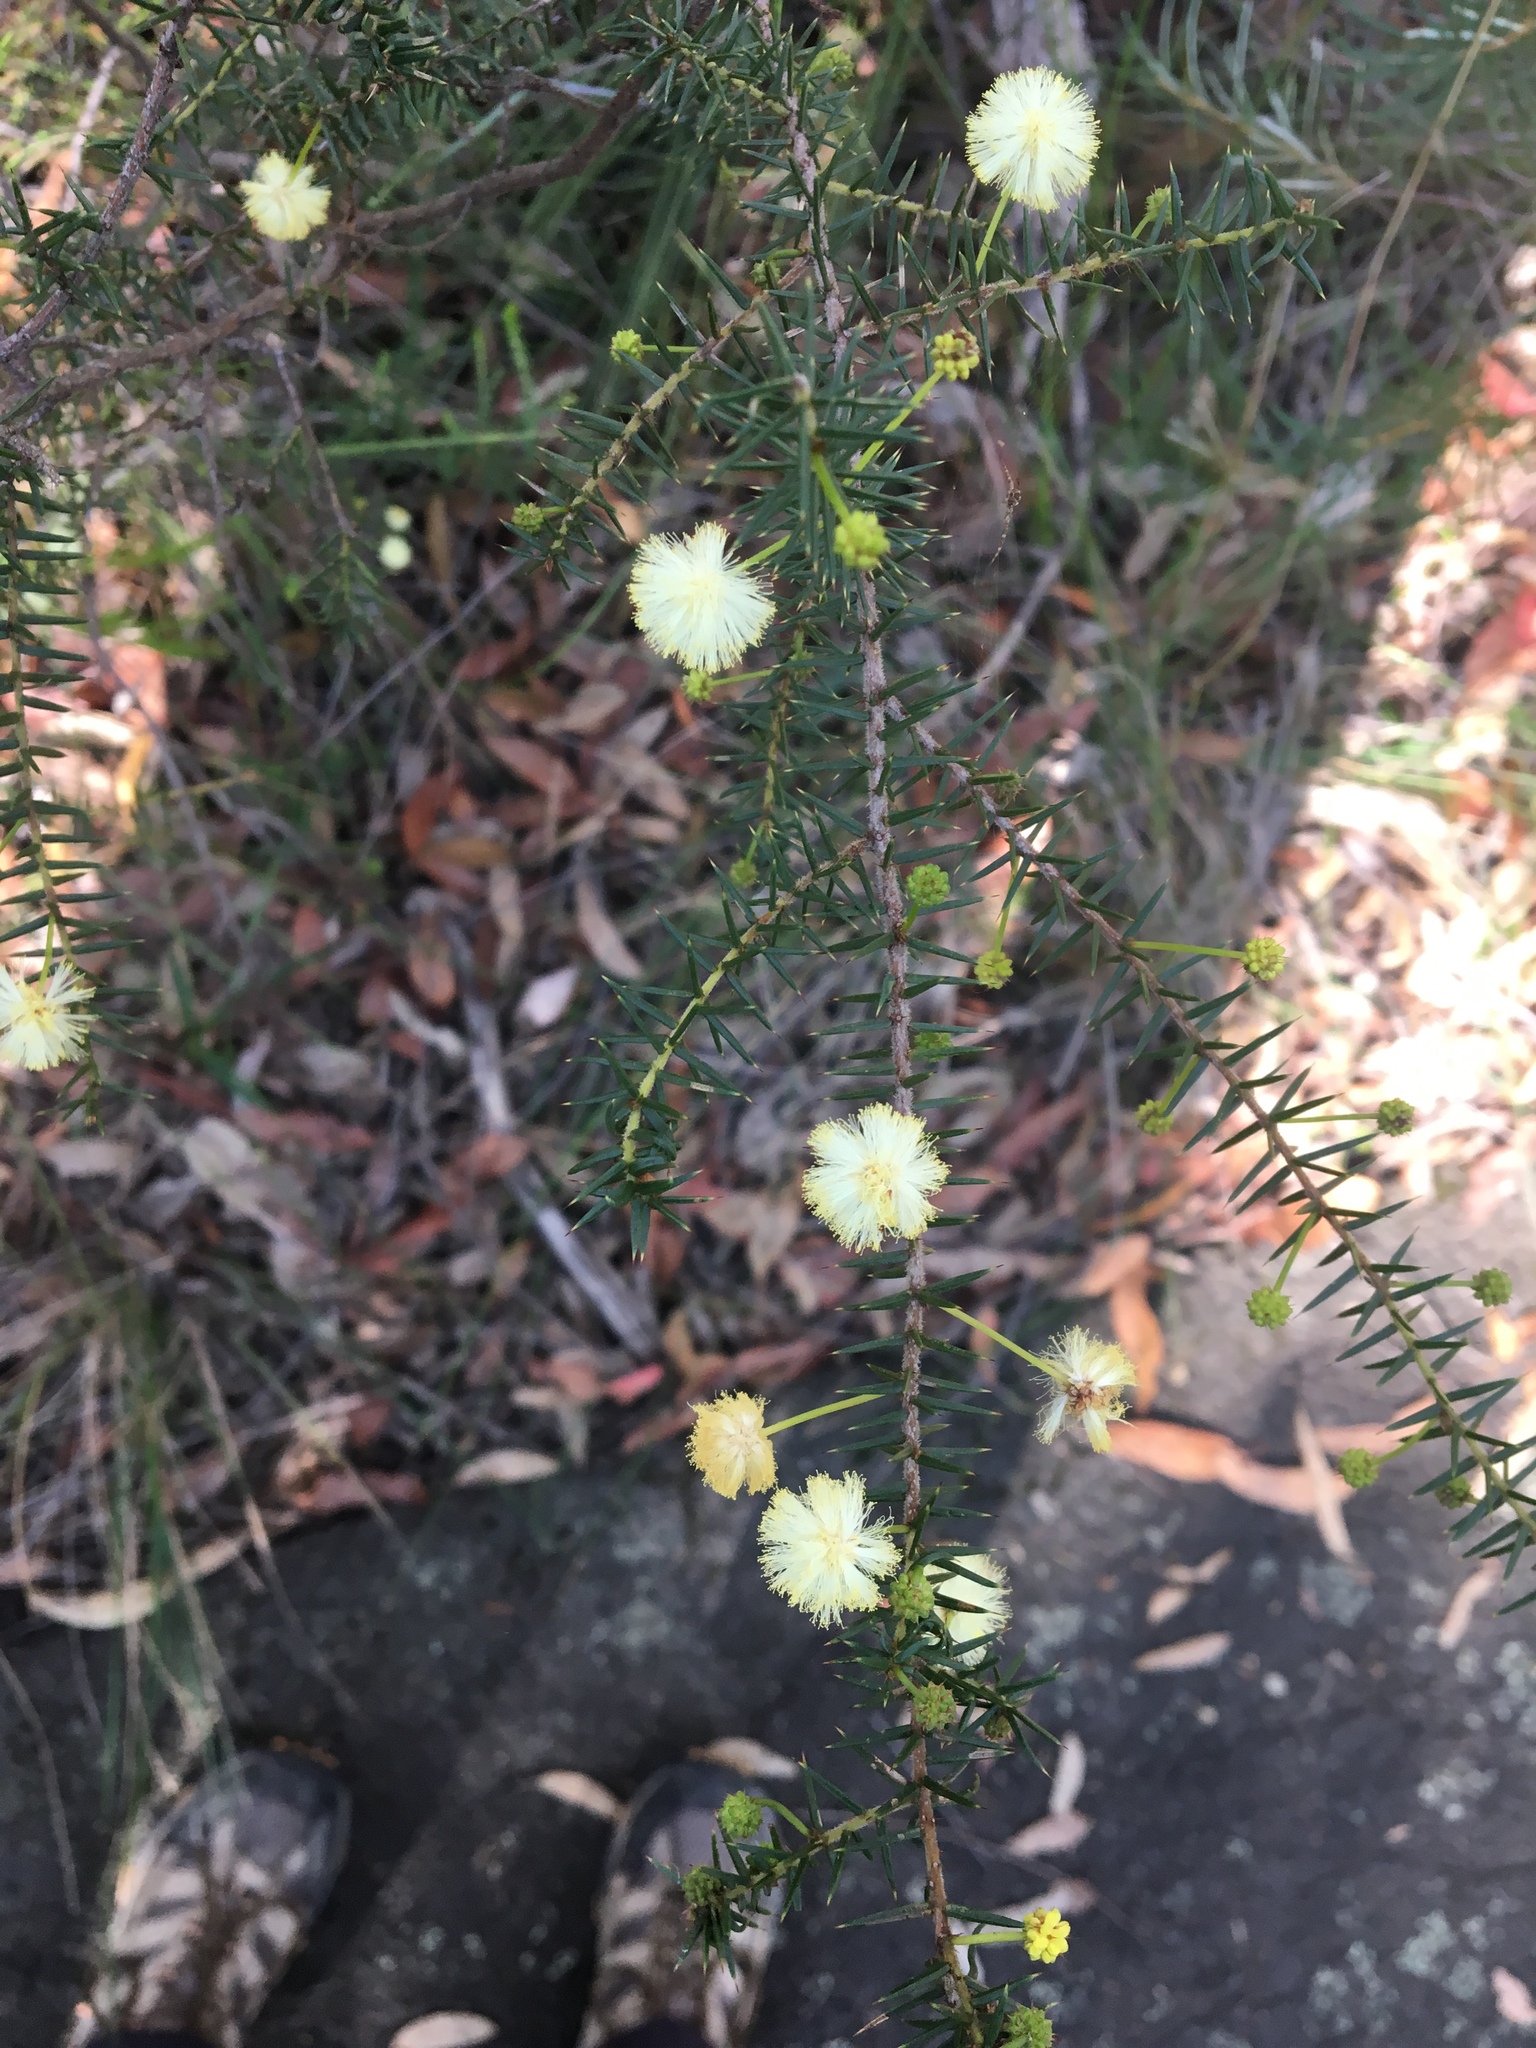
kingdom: Plantae
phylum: Tracheophyta
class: Magnoliopsida
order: Fabales
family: Fabaceae
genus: Acacia
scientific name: Acacia ulicifolia
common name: Juniper wattle
